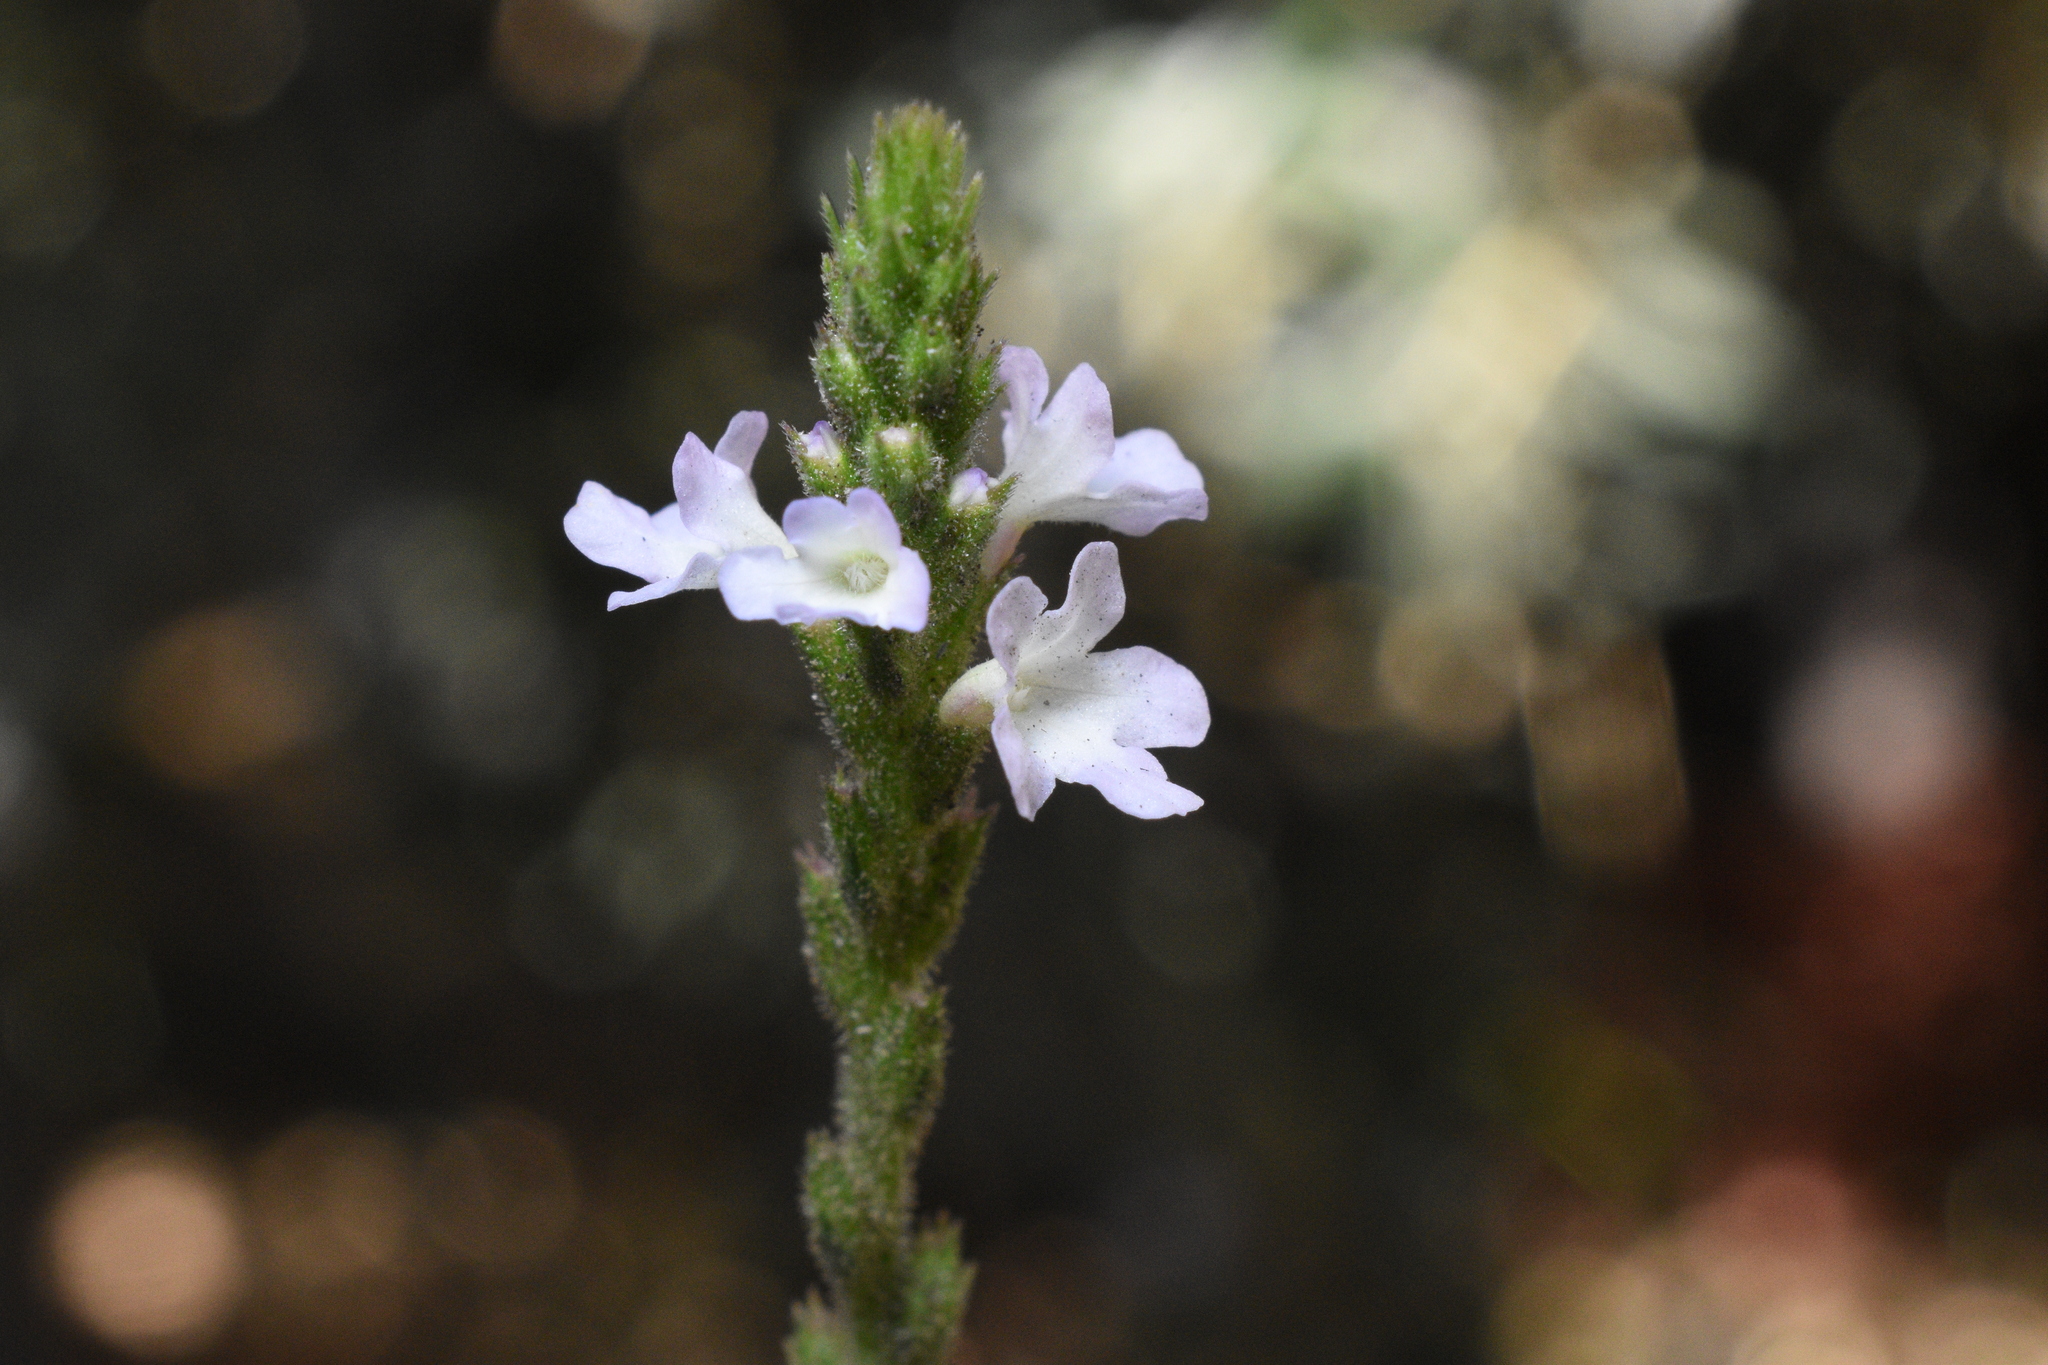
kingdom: Plantae
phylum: Tracheophyta
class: Magnoliopsida
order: Lamiales
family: Verbenaceae
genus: Verbena
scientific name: Verbena officinalis
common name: Vervain
